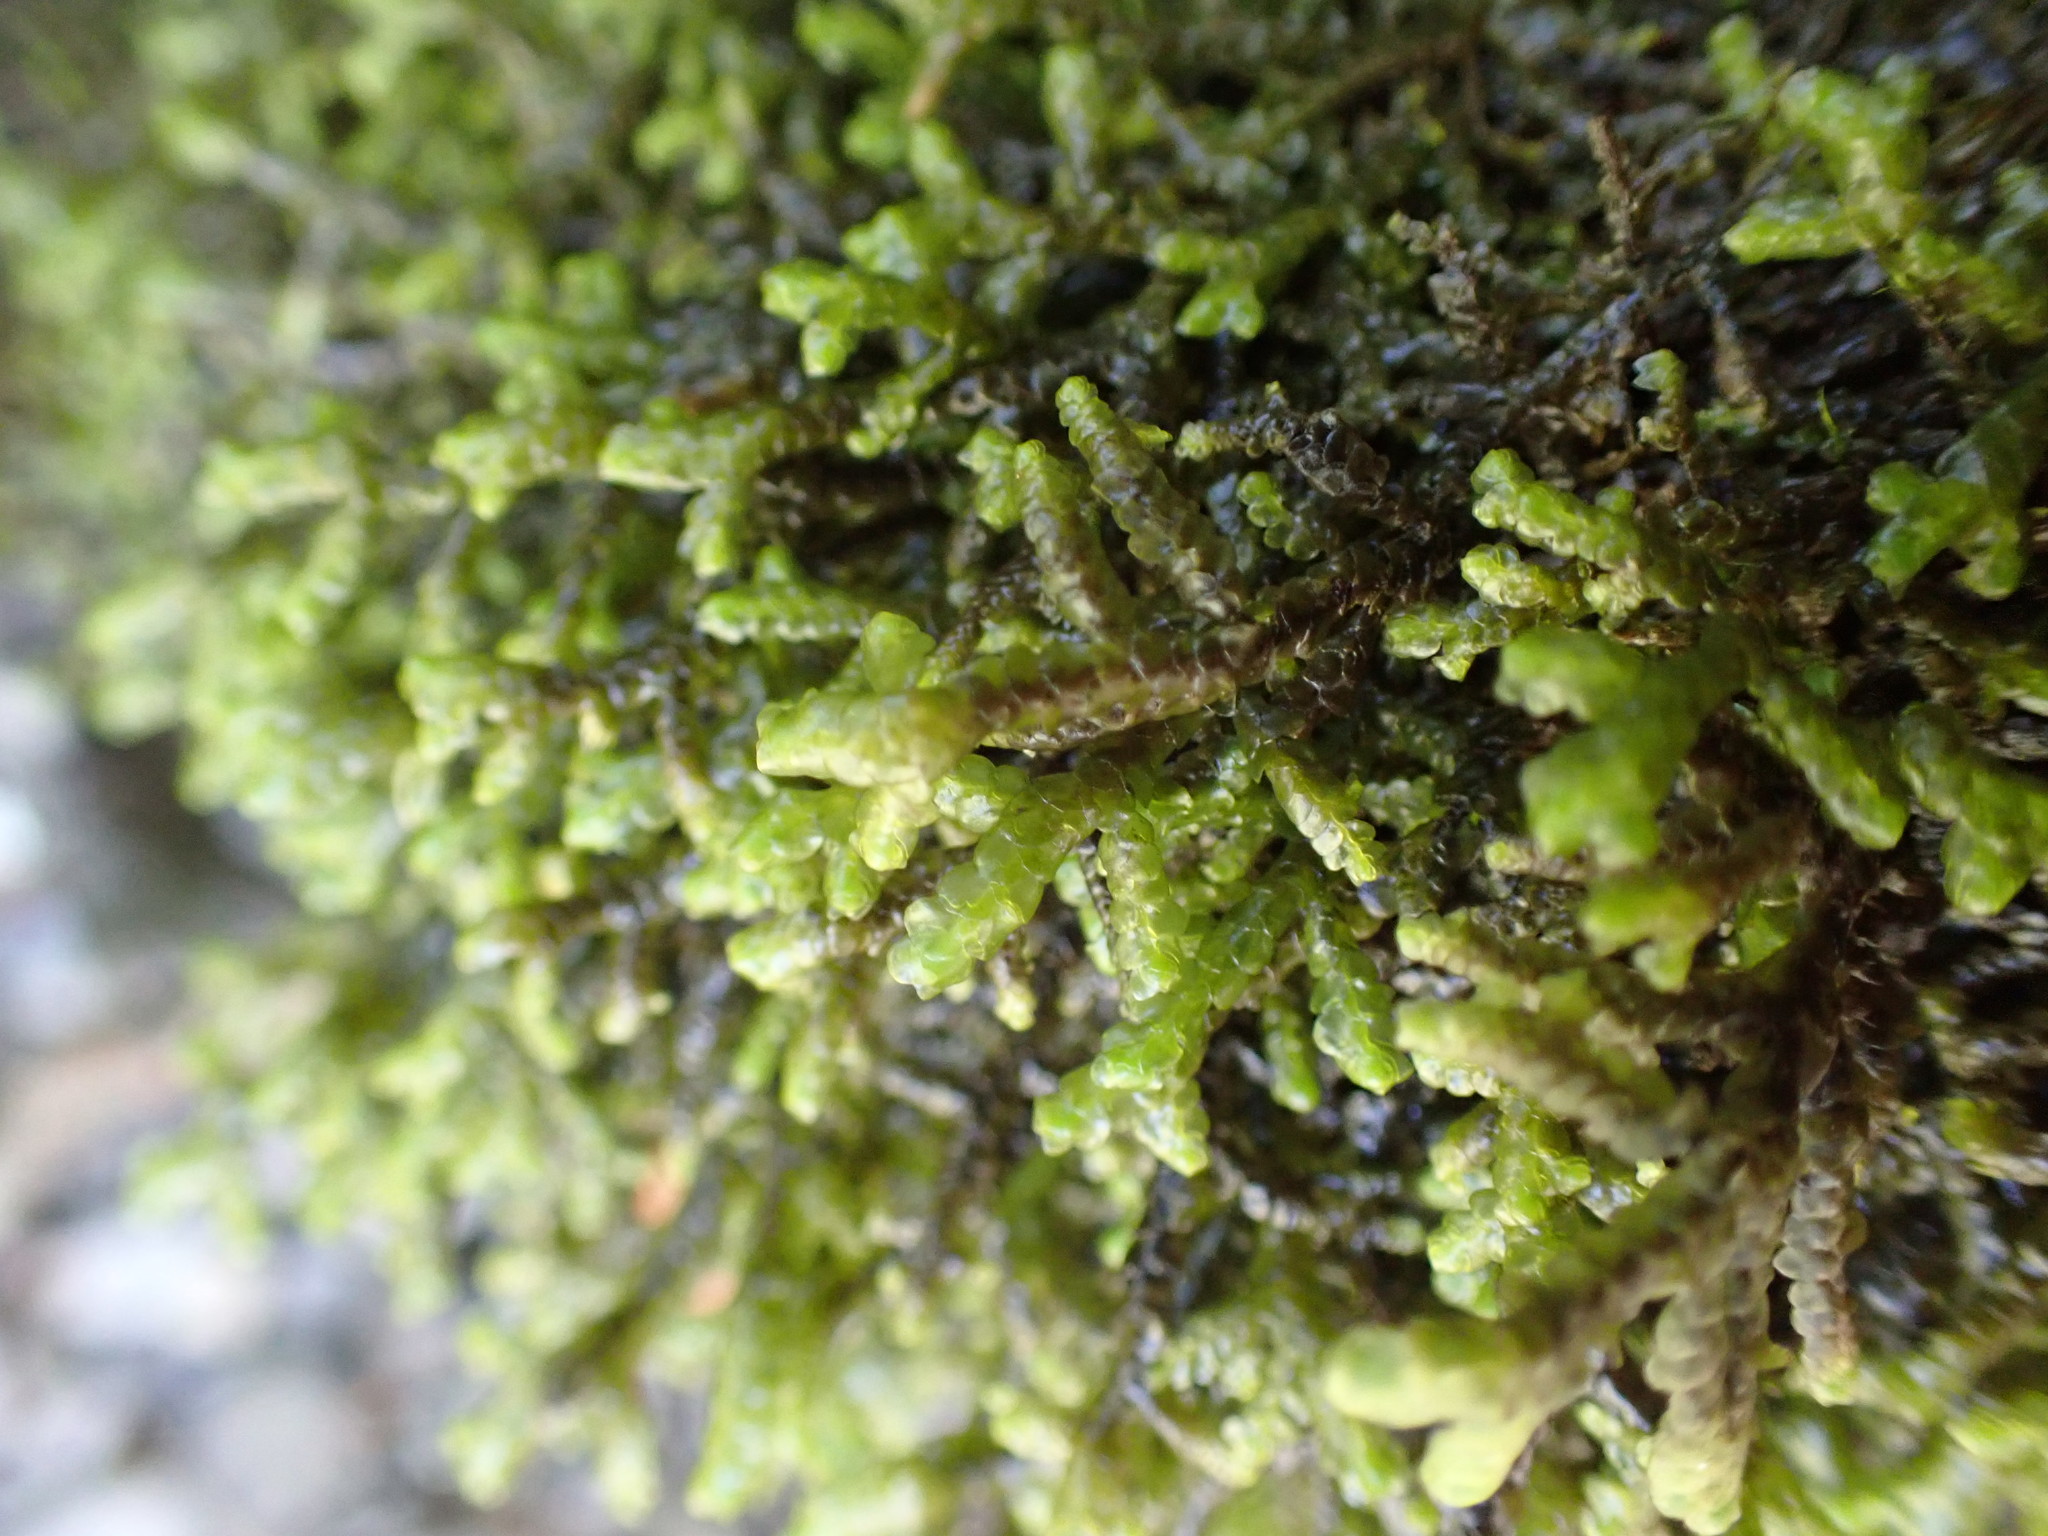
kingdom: Plantae
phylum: Marchantiophyta
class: Jungermanniopsida
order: Porellales
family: Porellaceae
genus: Porella
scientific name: Porella navicularis
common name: Tree ruffle liverwort
